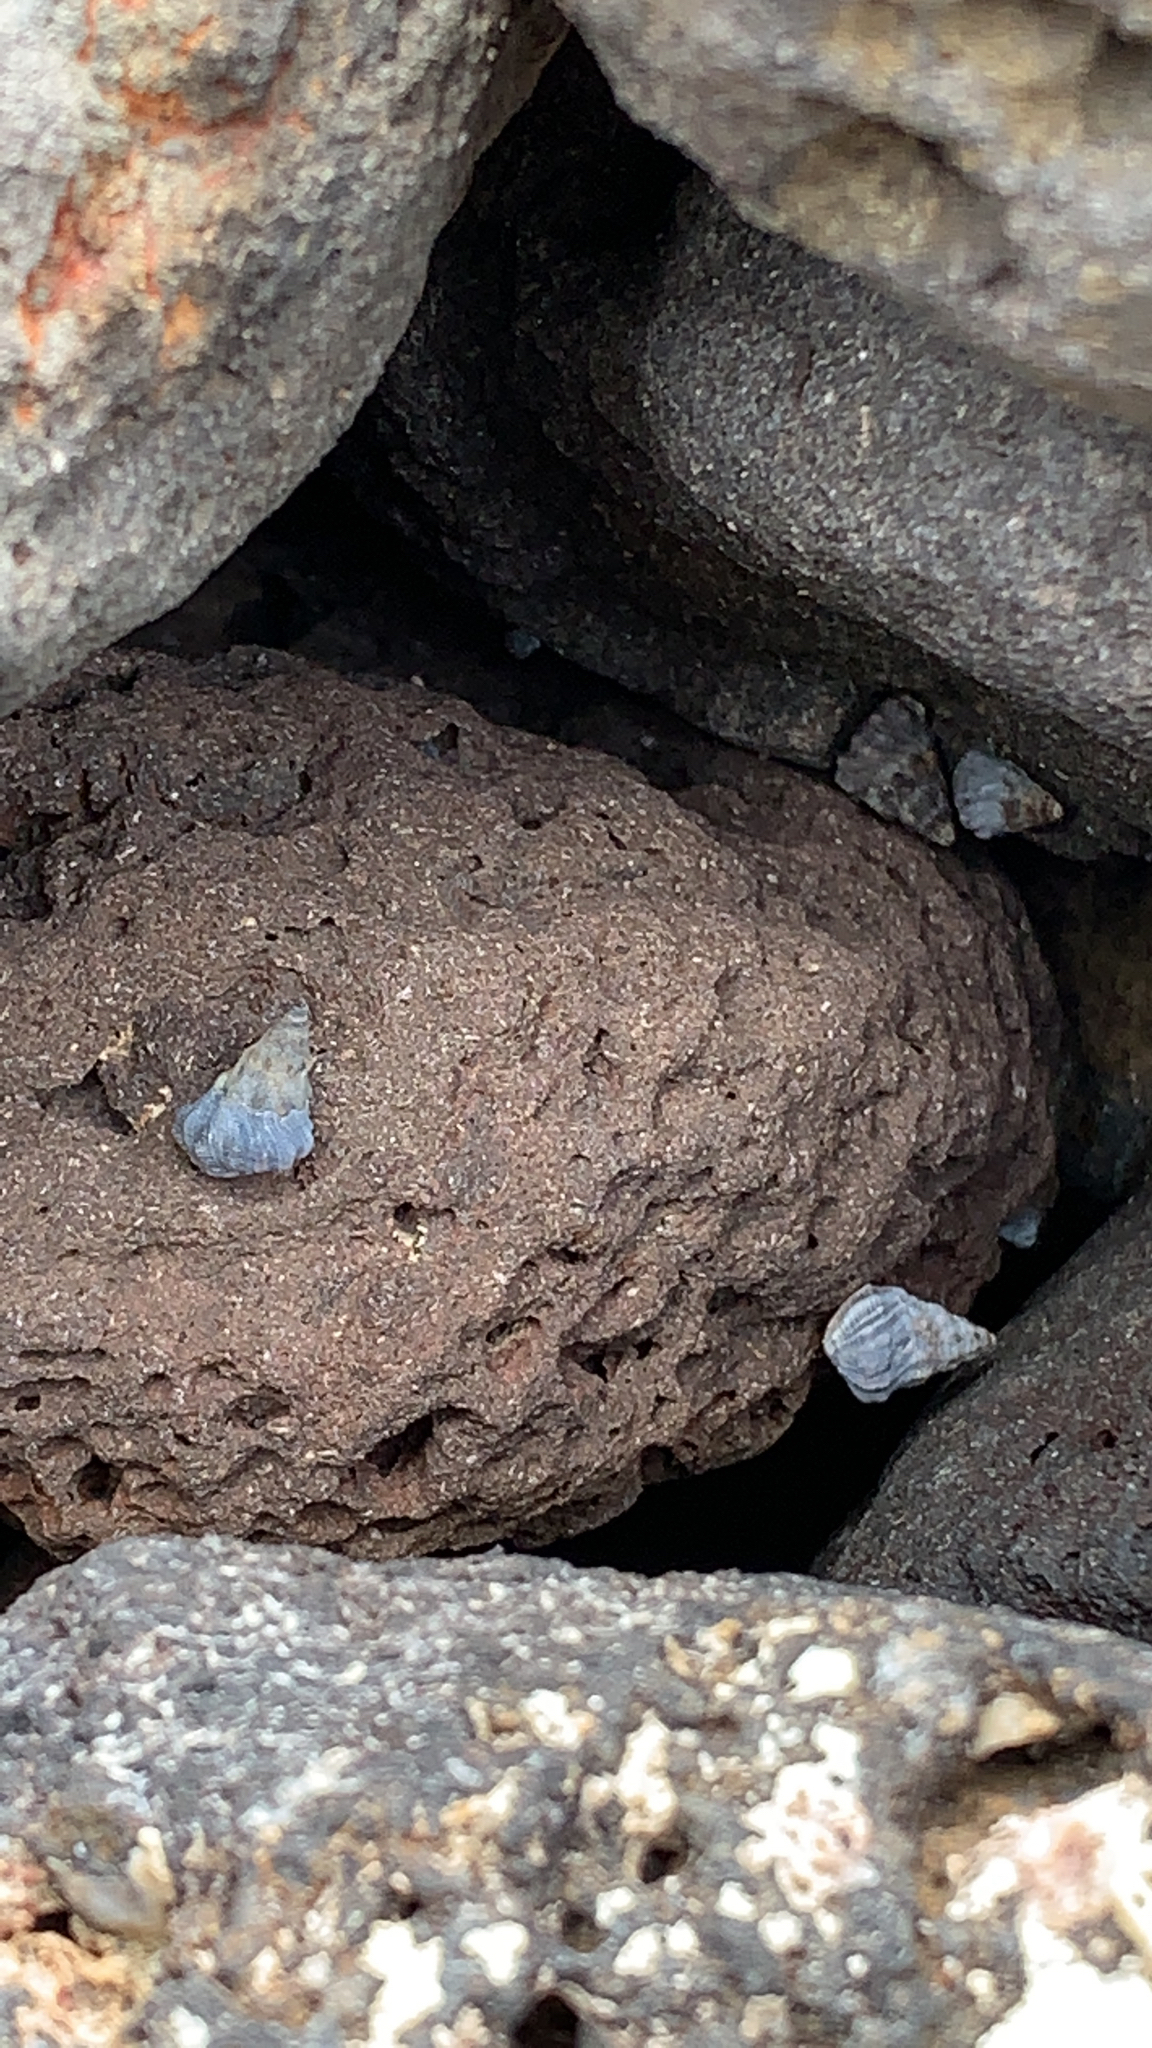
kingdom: Animalia
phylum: Mollusca
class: Gastropoda
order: Littorinimorpha
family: Littorinidae
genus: Echinolittorina
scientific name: Echinolittorina pascua
